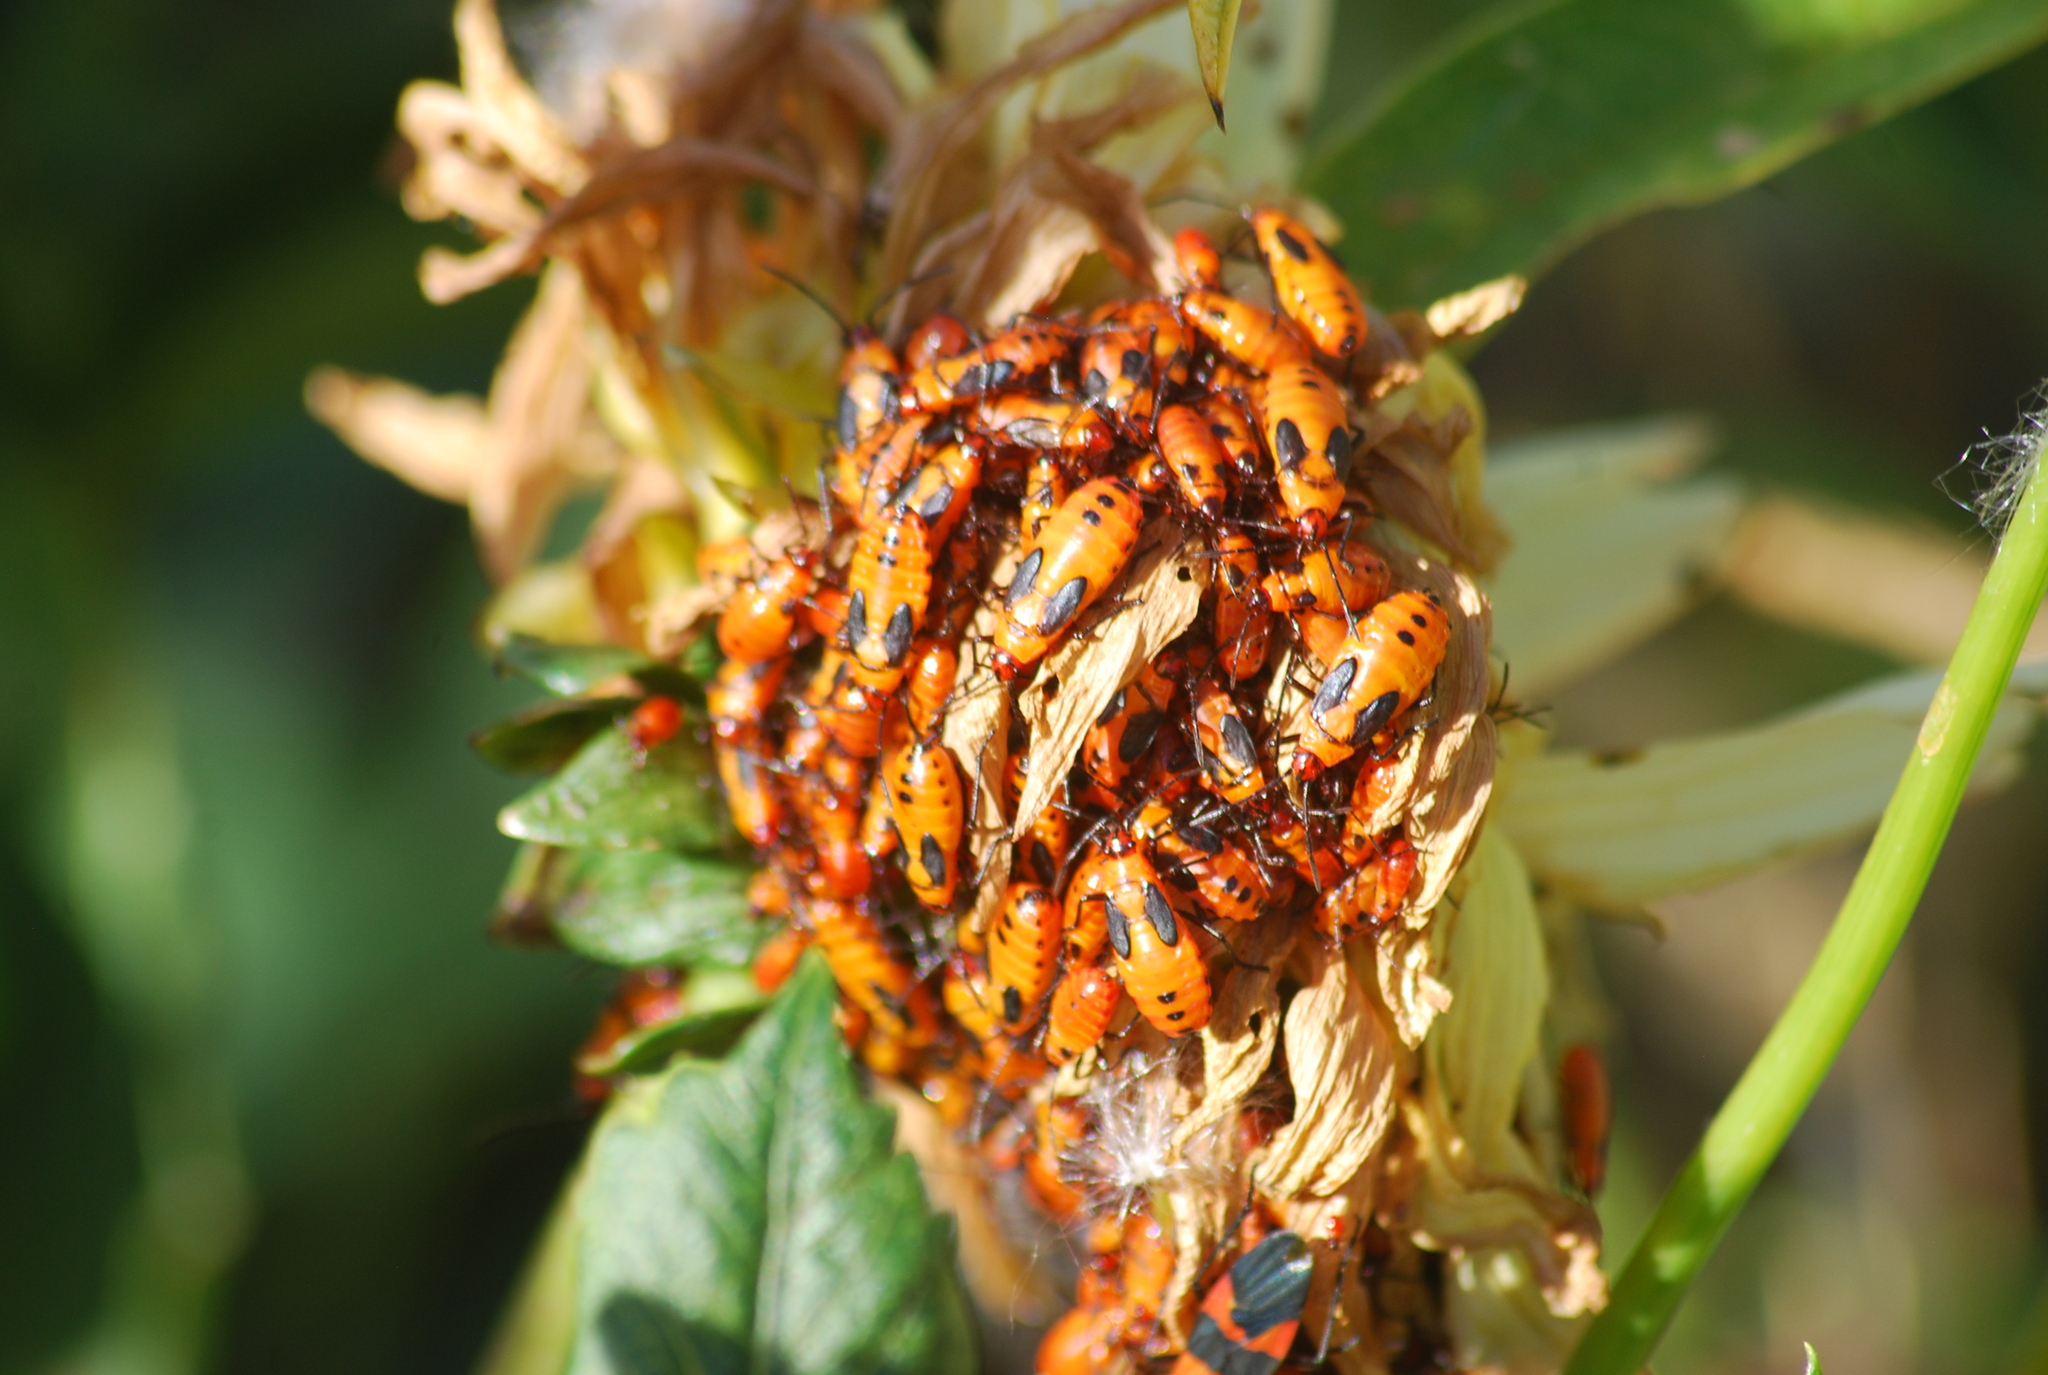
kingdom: Animalia
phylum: Arthropoda
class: Insecta
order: Hemiptera
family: Lygaeidae
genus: Oncopeltus
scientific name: Oncopeltus fasciatus
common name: Large milkweed bug
